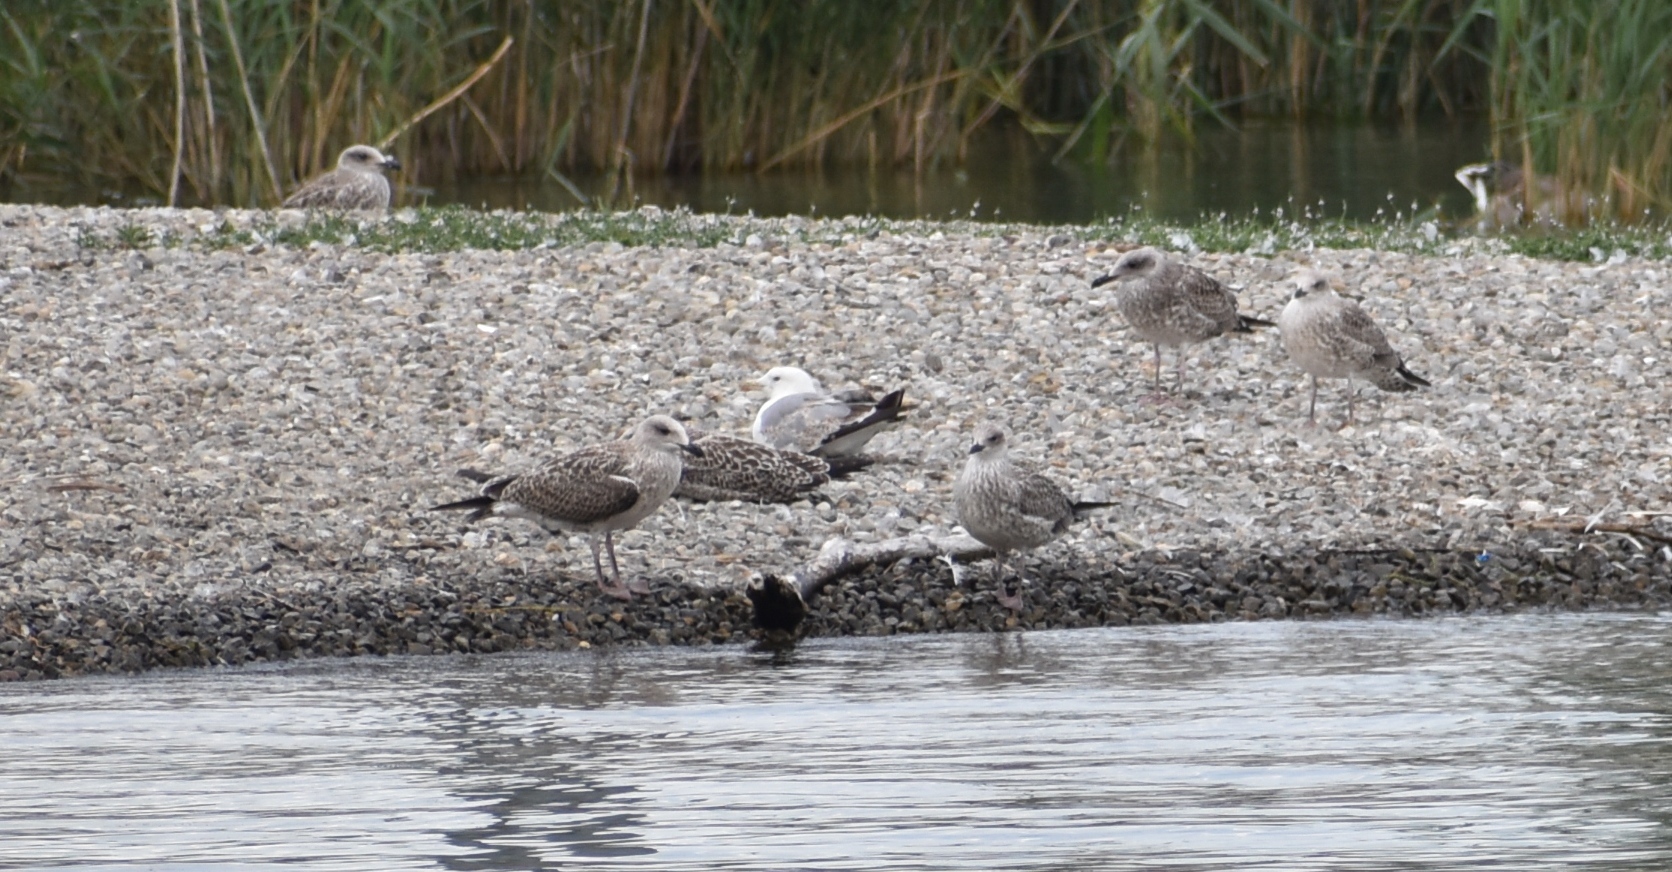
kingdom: Animalia
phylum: Chordata
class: Aves
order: Charadriiformes
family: Laridae
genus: Larus
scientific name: Larus michahellis
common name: Yellow-legged gull
